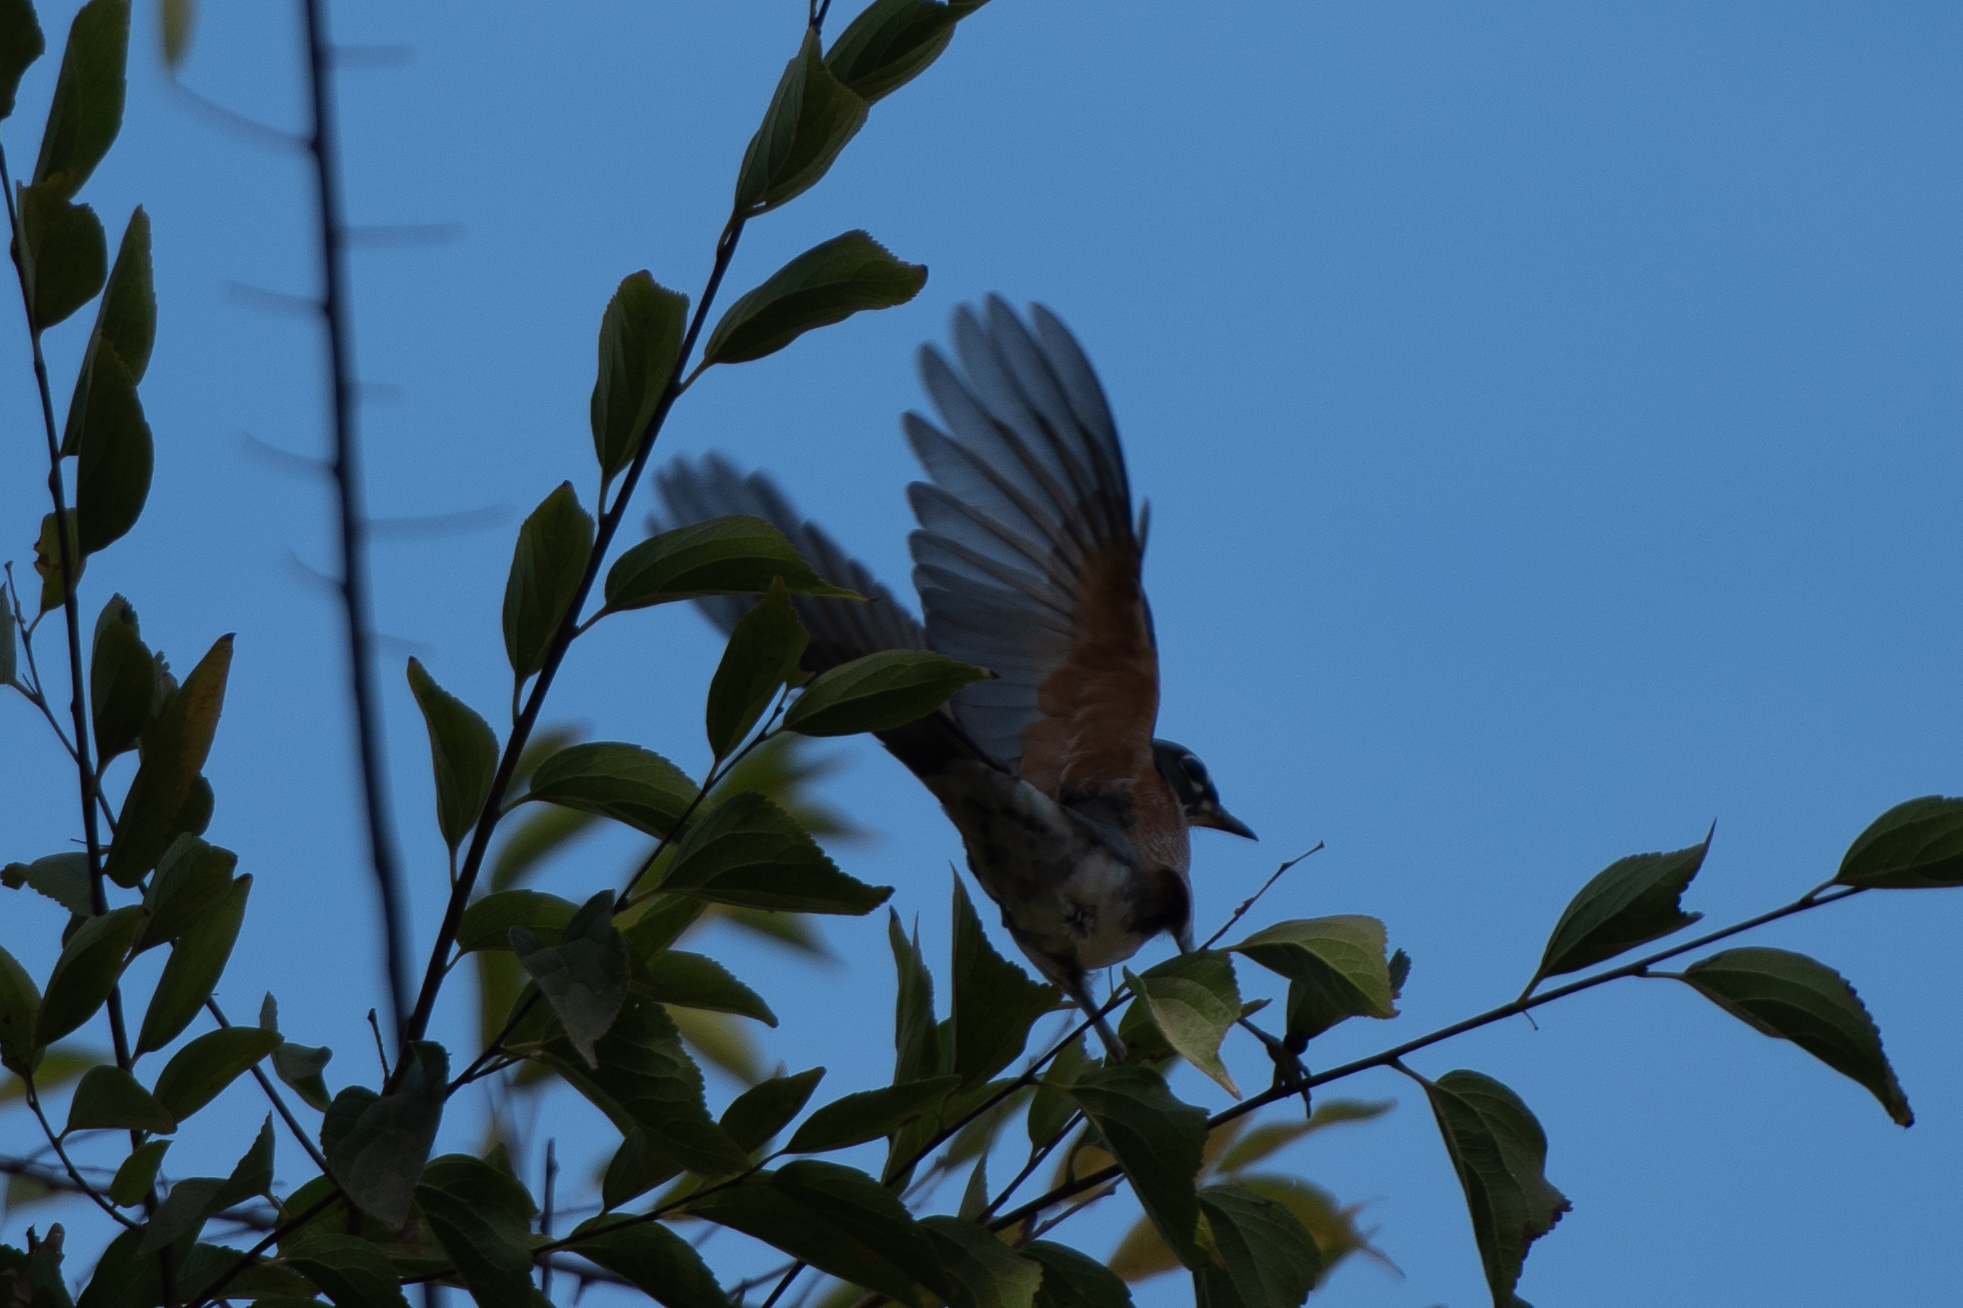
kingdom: Animalia
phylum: Chordata
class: Aves
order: Passeriformes
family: Turdidae
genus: Turdus
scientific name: Turdus migratorius
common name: American robin
